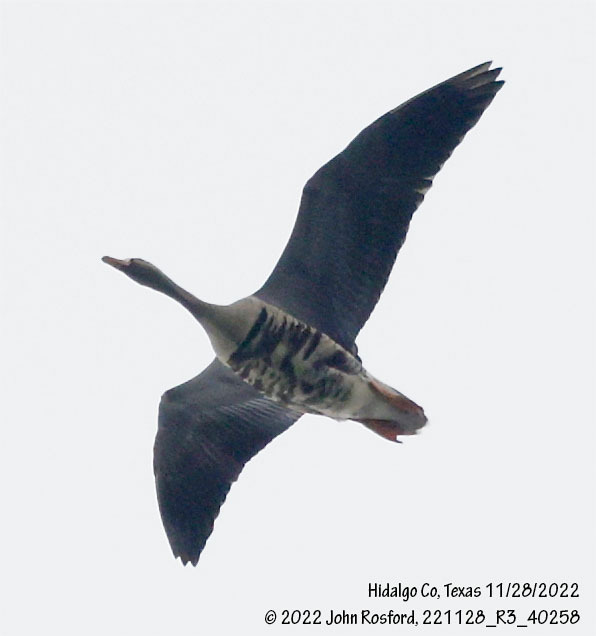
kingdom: Animalia
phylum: Chordata
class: Aves
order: Anseriformes
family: Anatidae
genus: Anser
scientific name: Anser albifrons
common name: Greater white-fronted goose
